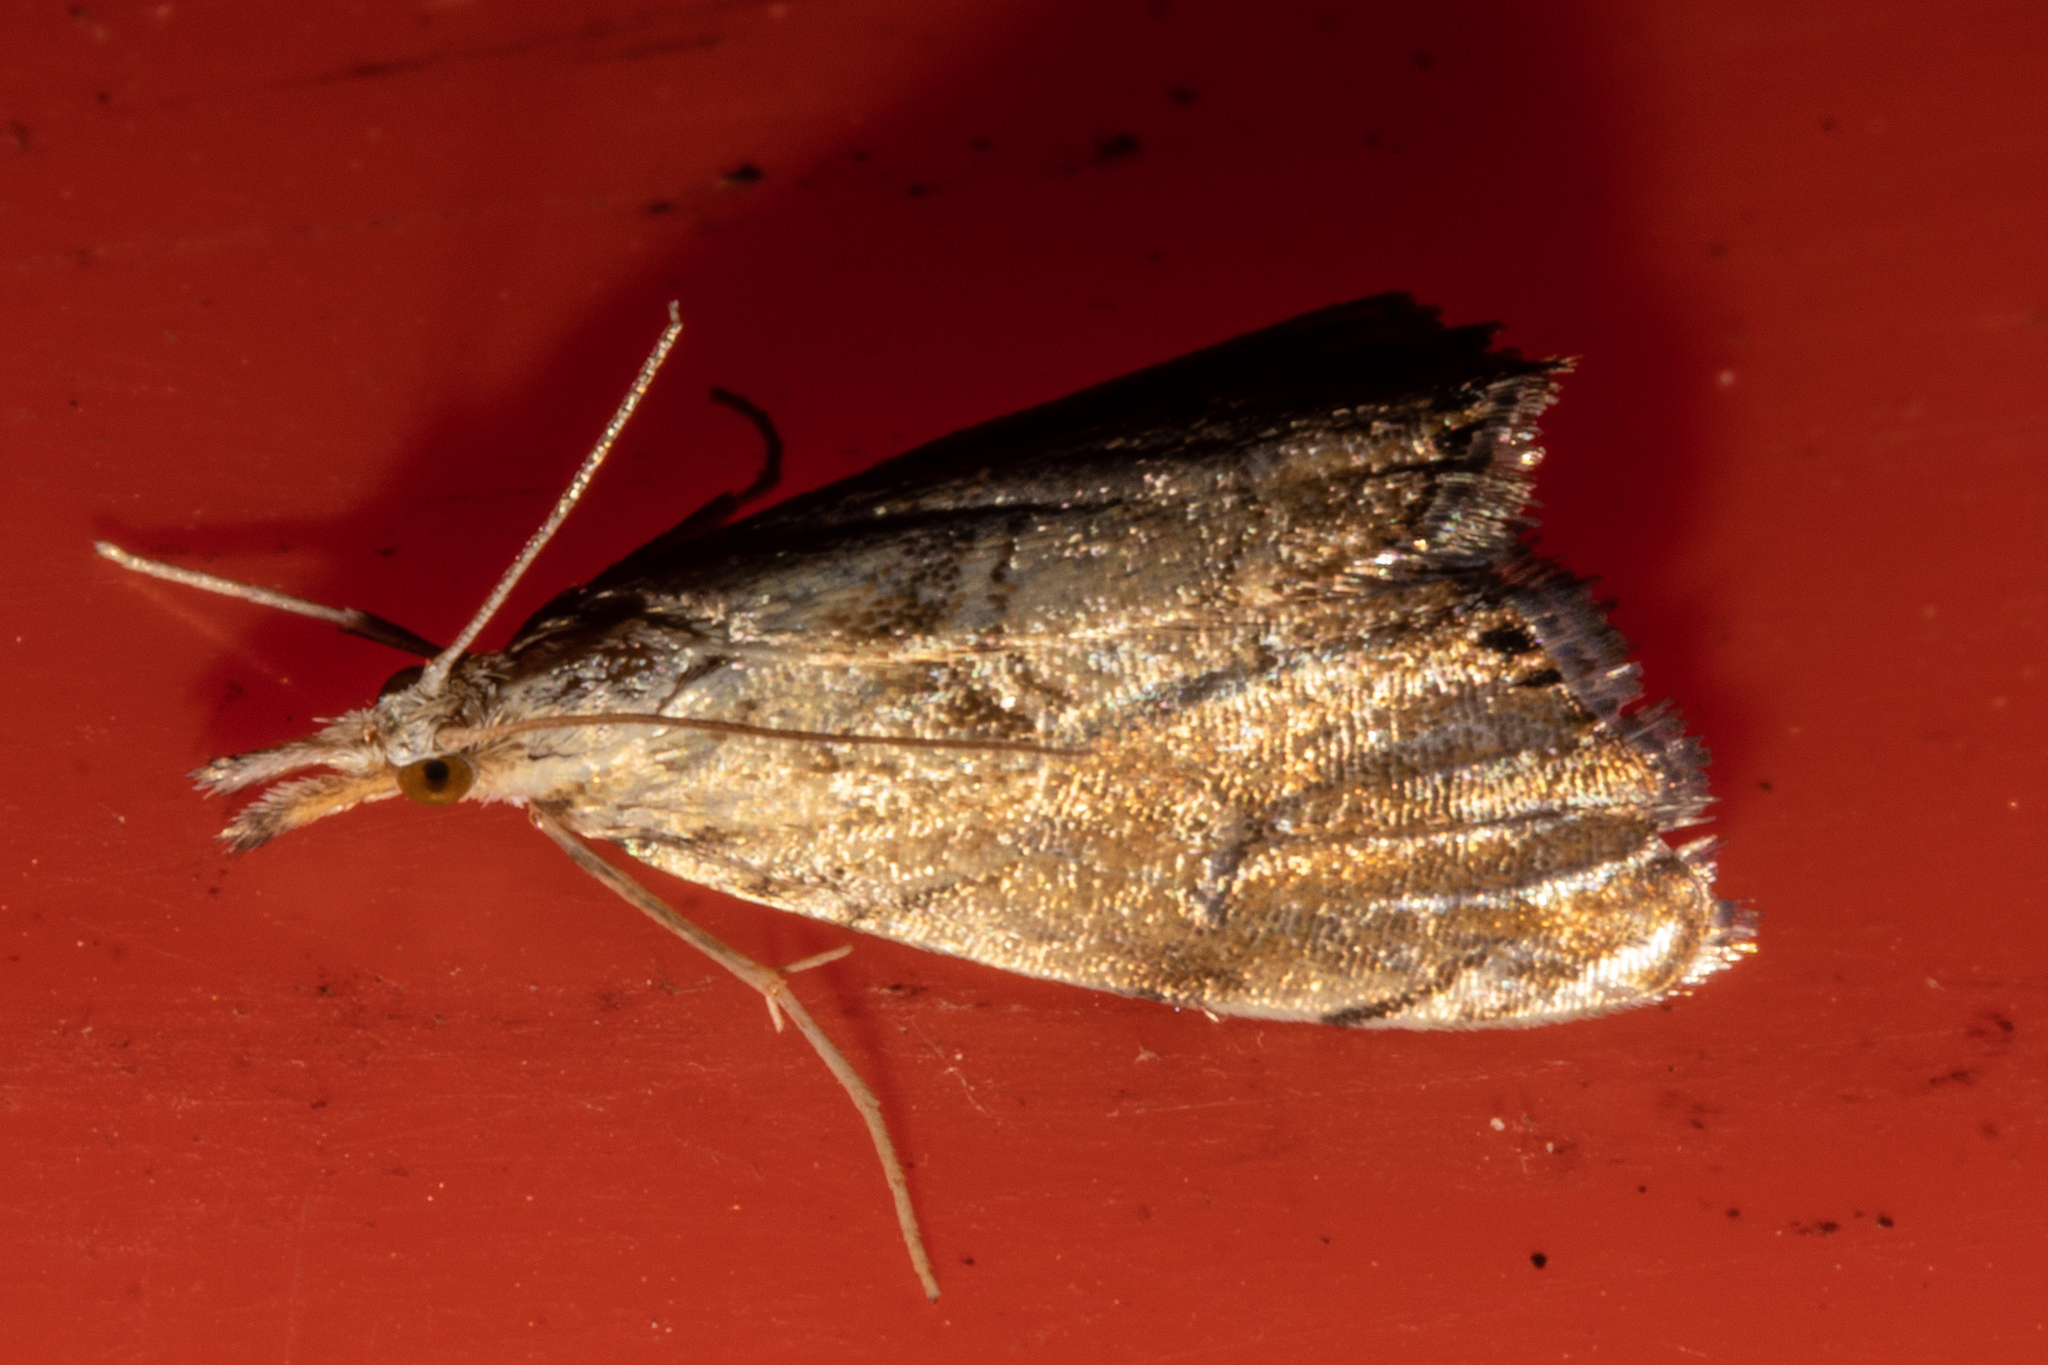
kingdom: Animalia
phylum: Arthropoda
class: Insecta
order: Lepidoptera
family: Crambidae
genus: Glaucocharis
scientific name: Glaucocharis chrysochyta
